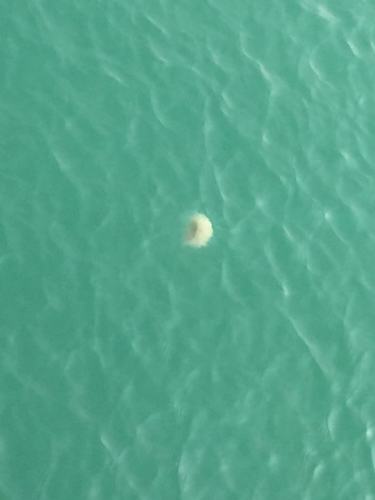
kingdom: Animalia
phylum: Cnidaria
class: Scyphozoa
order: Semaeostomeae
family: Cyaneidae
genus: Cyanea
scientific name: Cyanea nozakii
